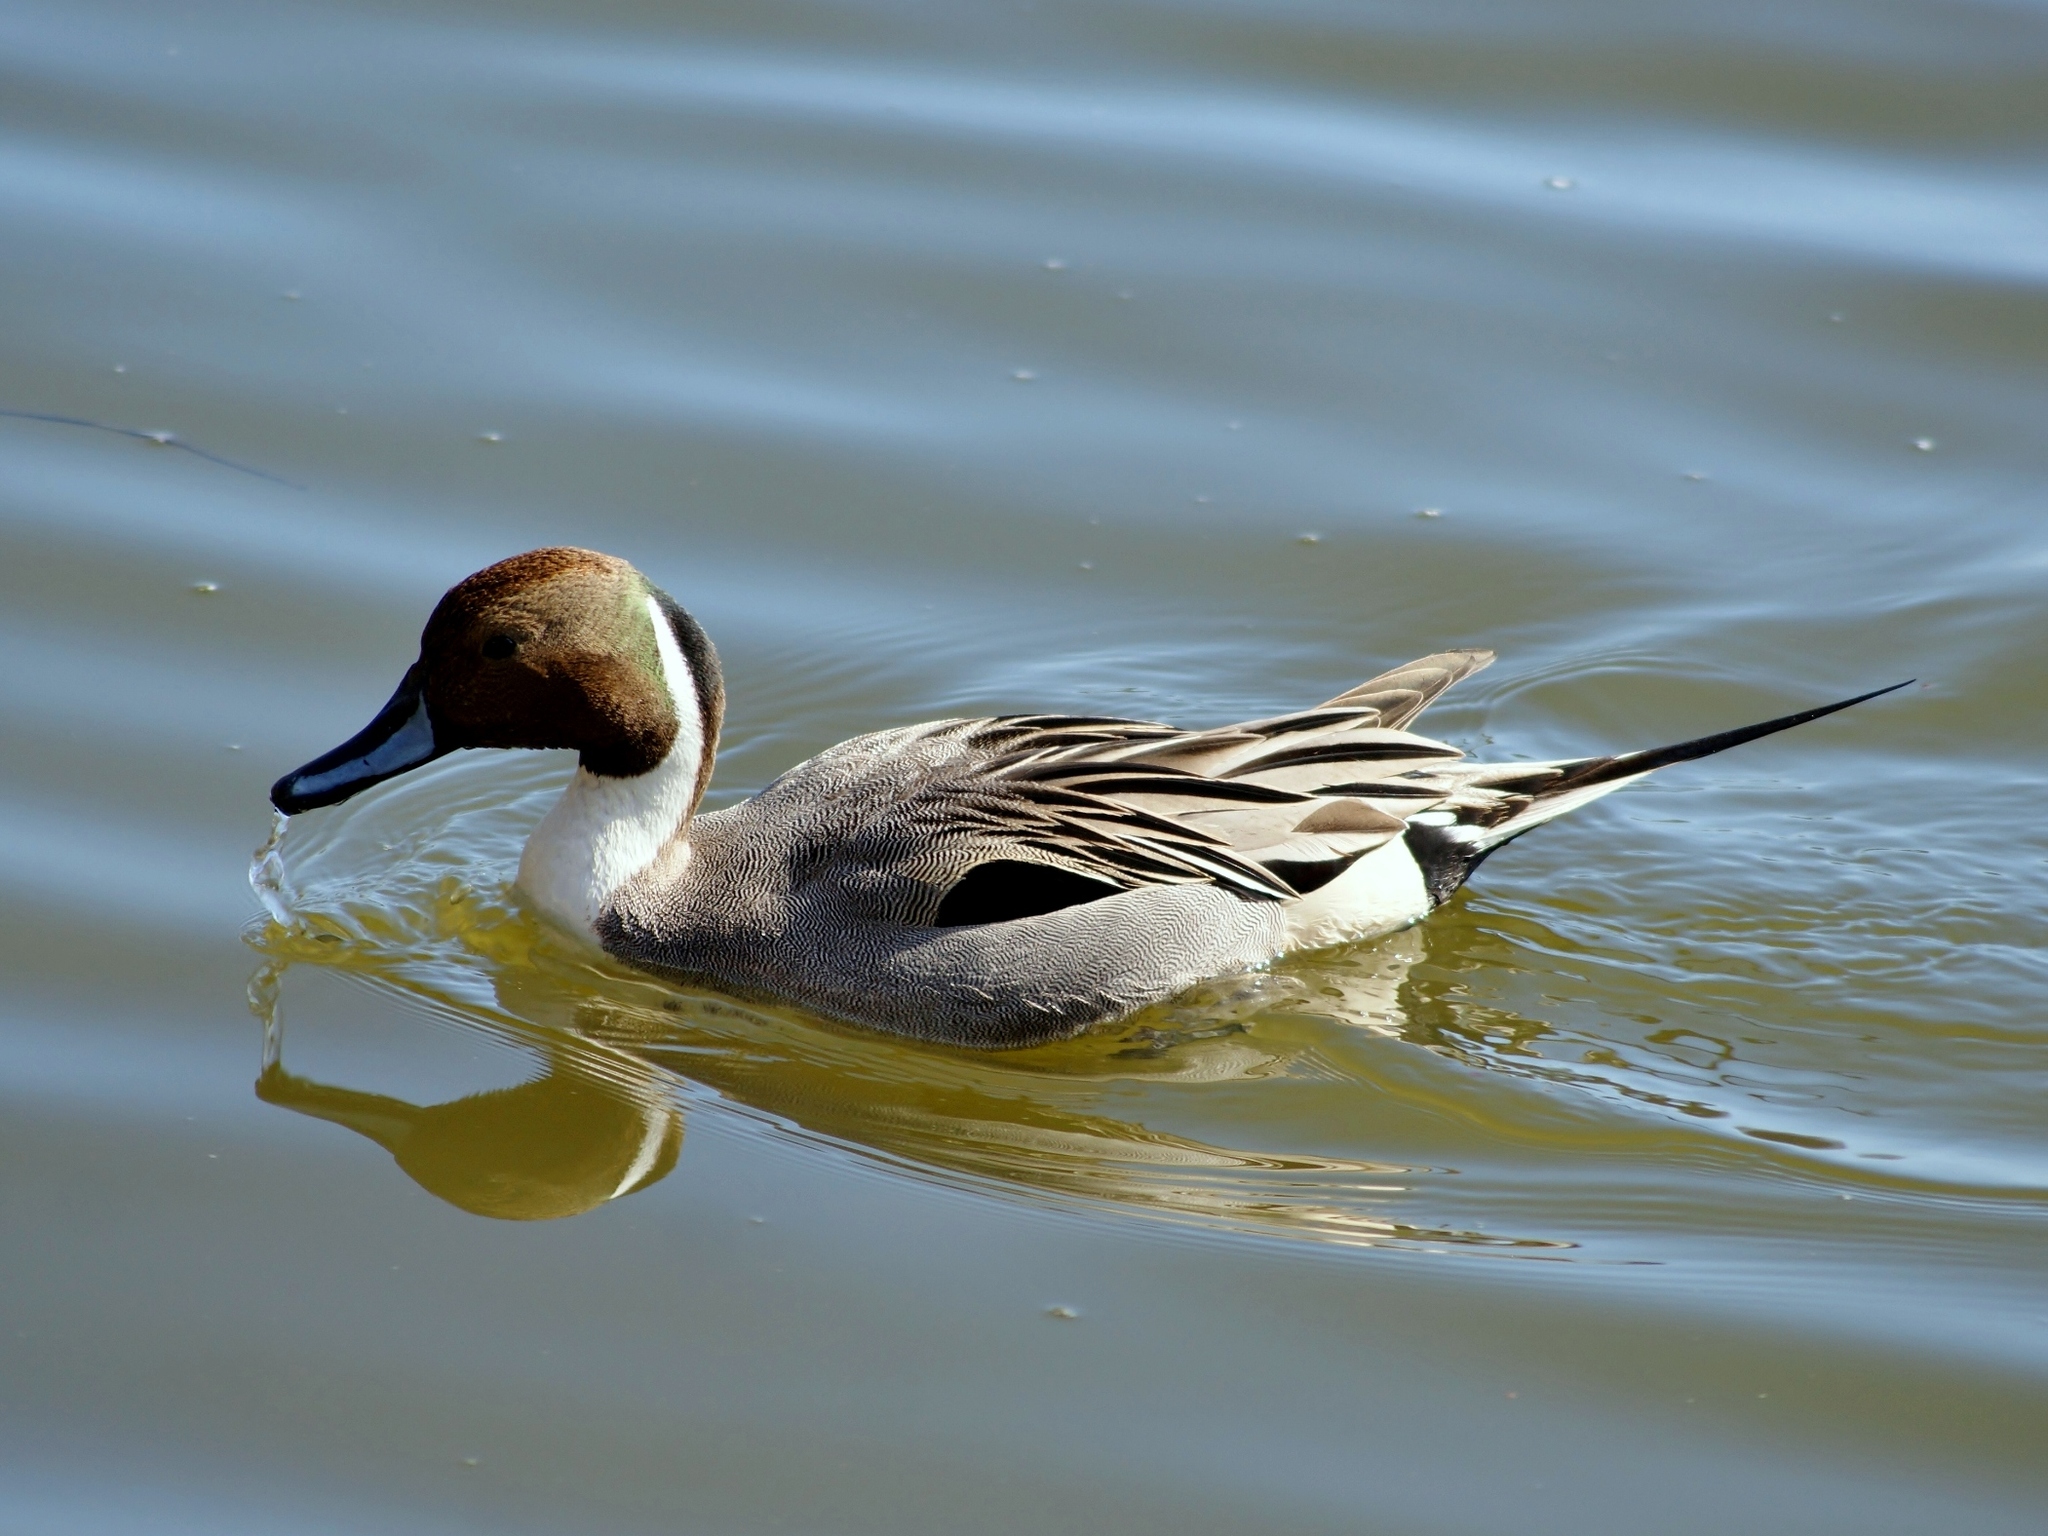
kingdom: Animalia
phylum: Chordata
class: Aves
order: Anseriformes
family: Anatidae
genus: Anas
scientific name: Anas acuta
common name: Northern pintail
